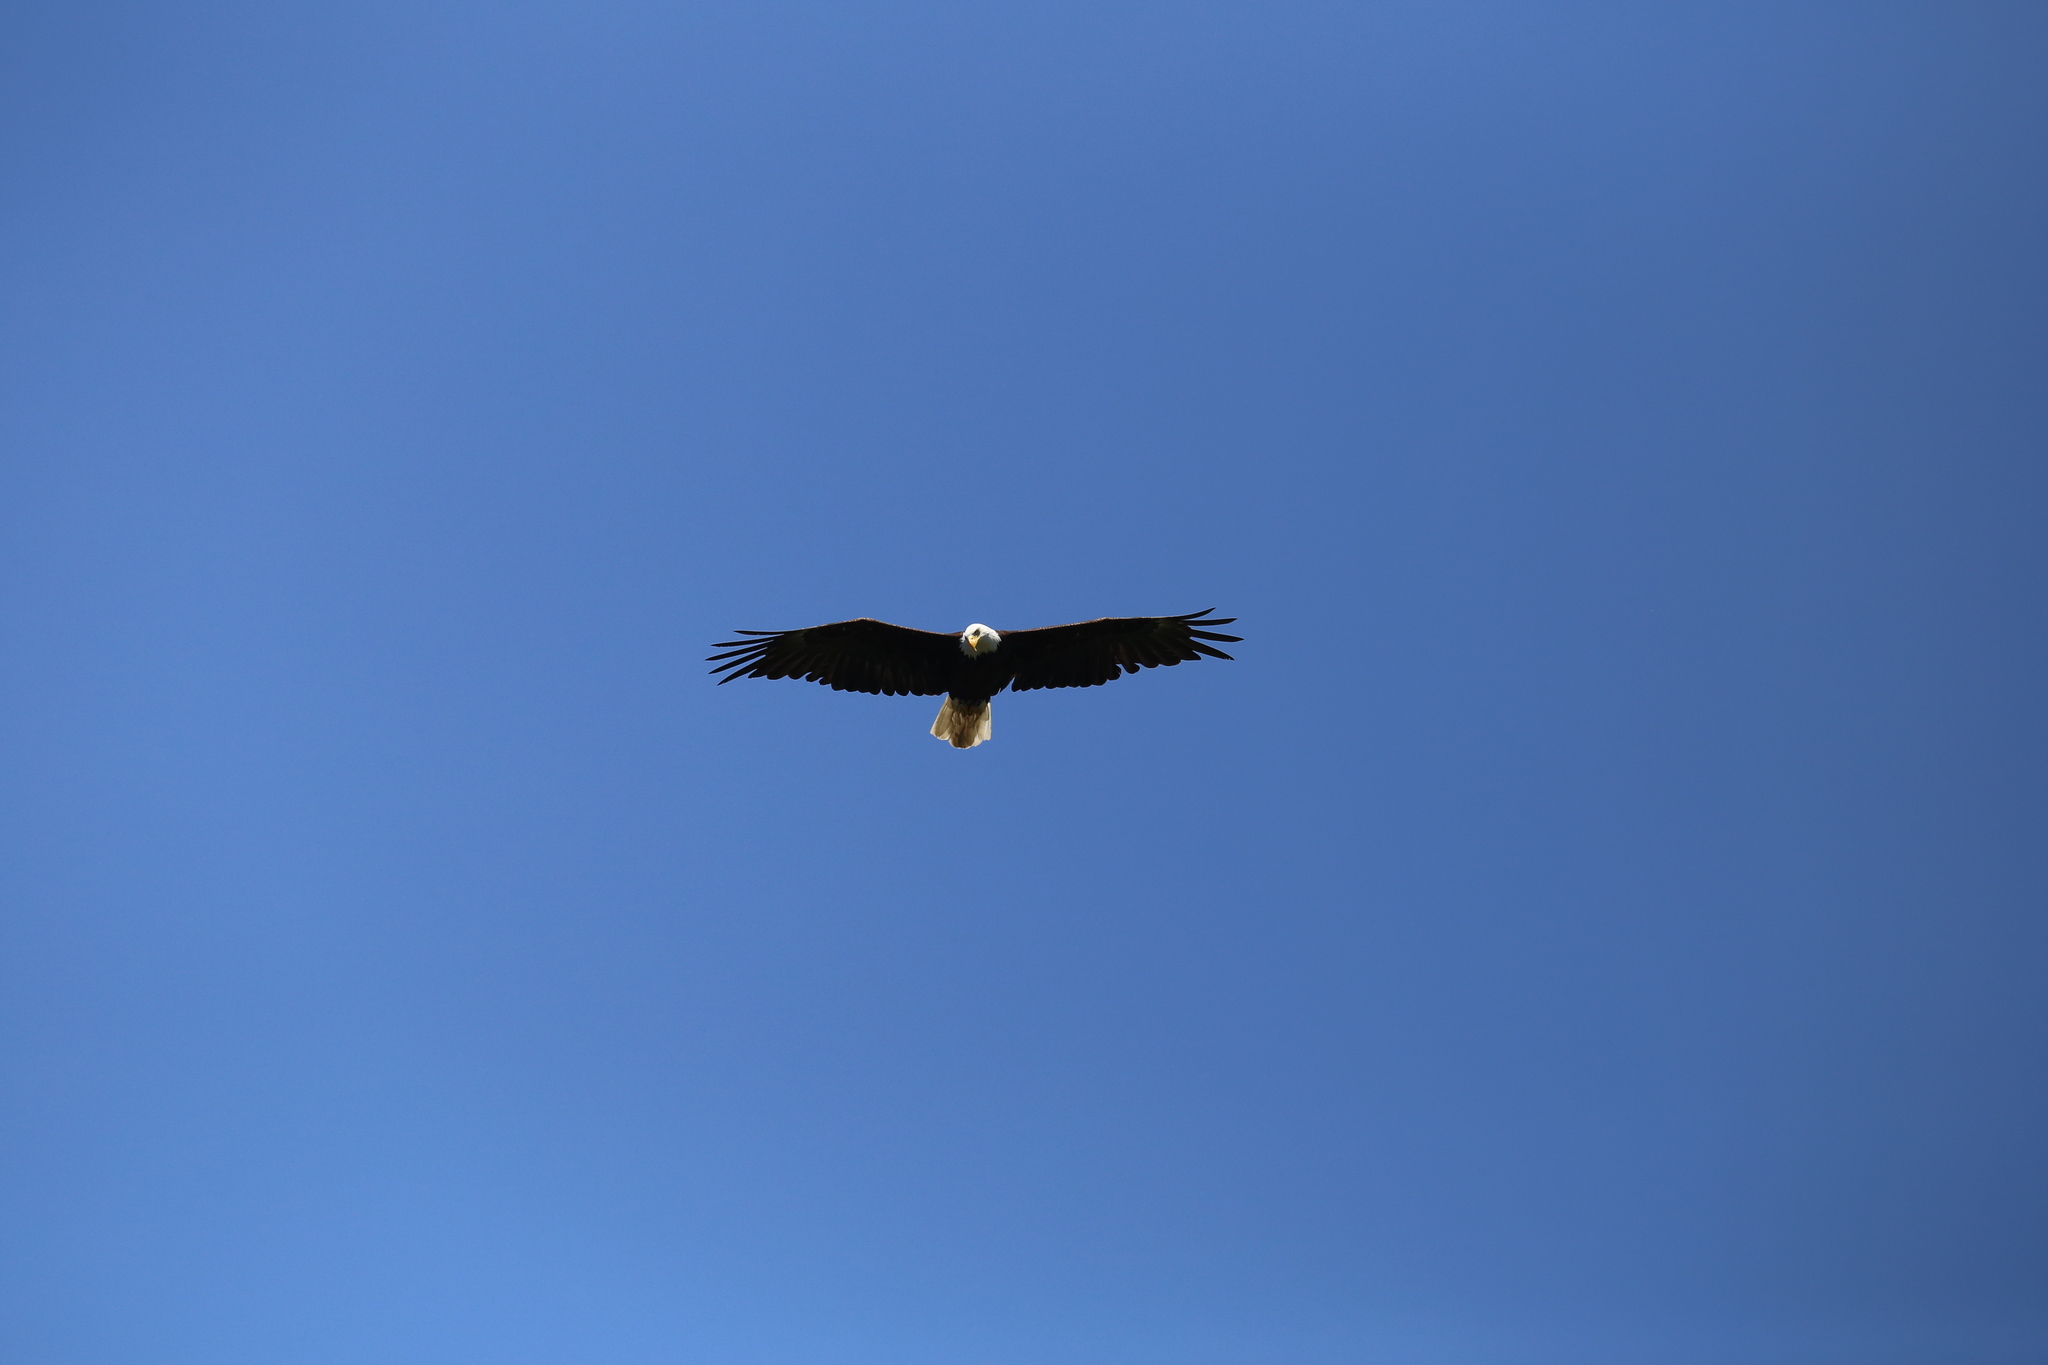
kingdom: Animalia
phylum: Chordata
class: Aves
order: Accipitriformes
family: Accipitridae
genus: Haliaeetus
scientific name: Haliaeetus leucocephalus
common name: Bald eagle
